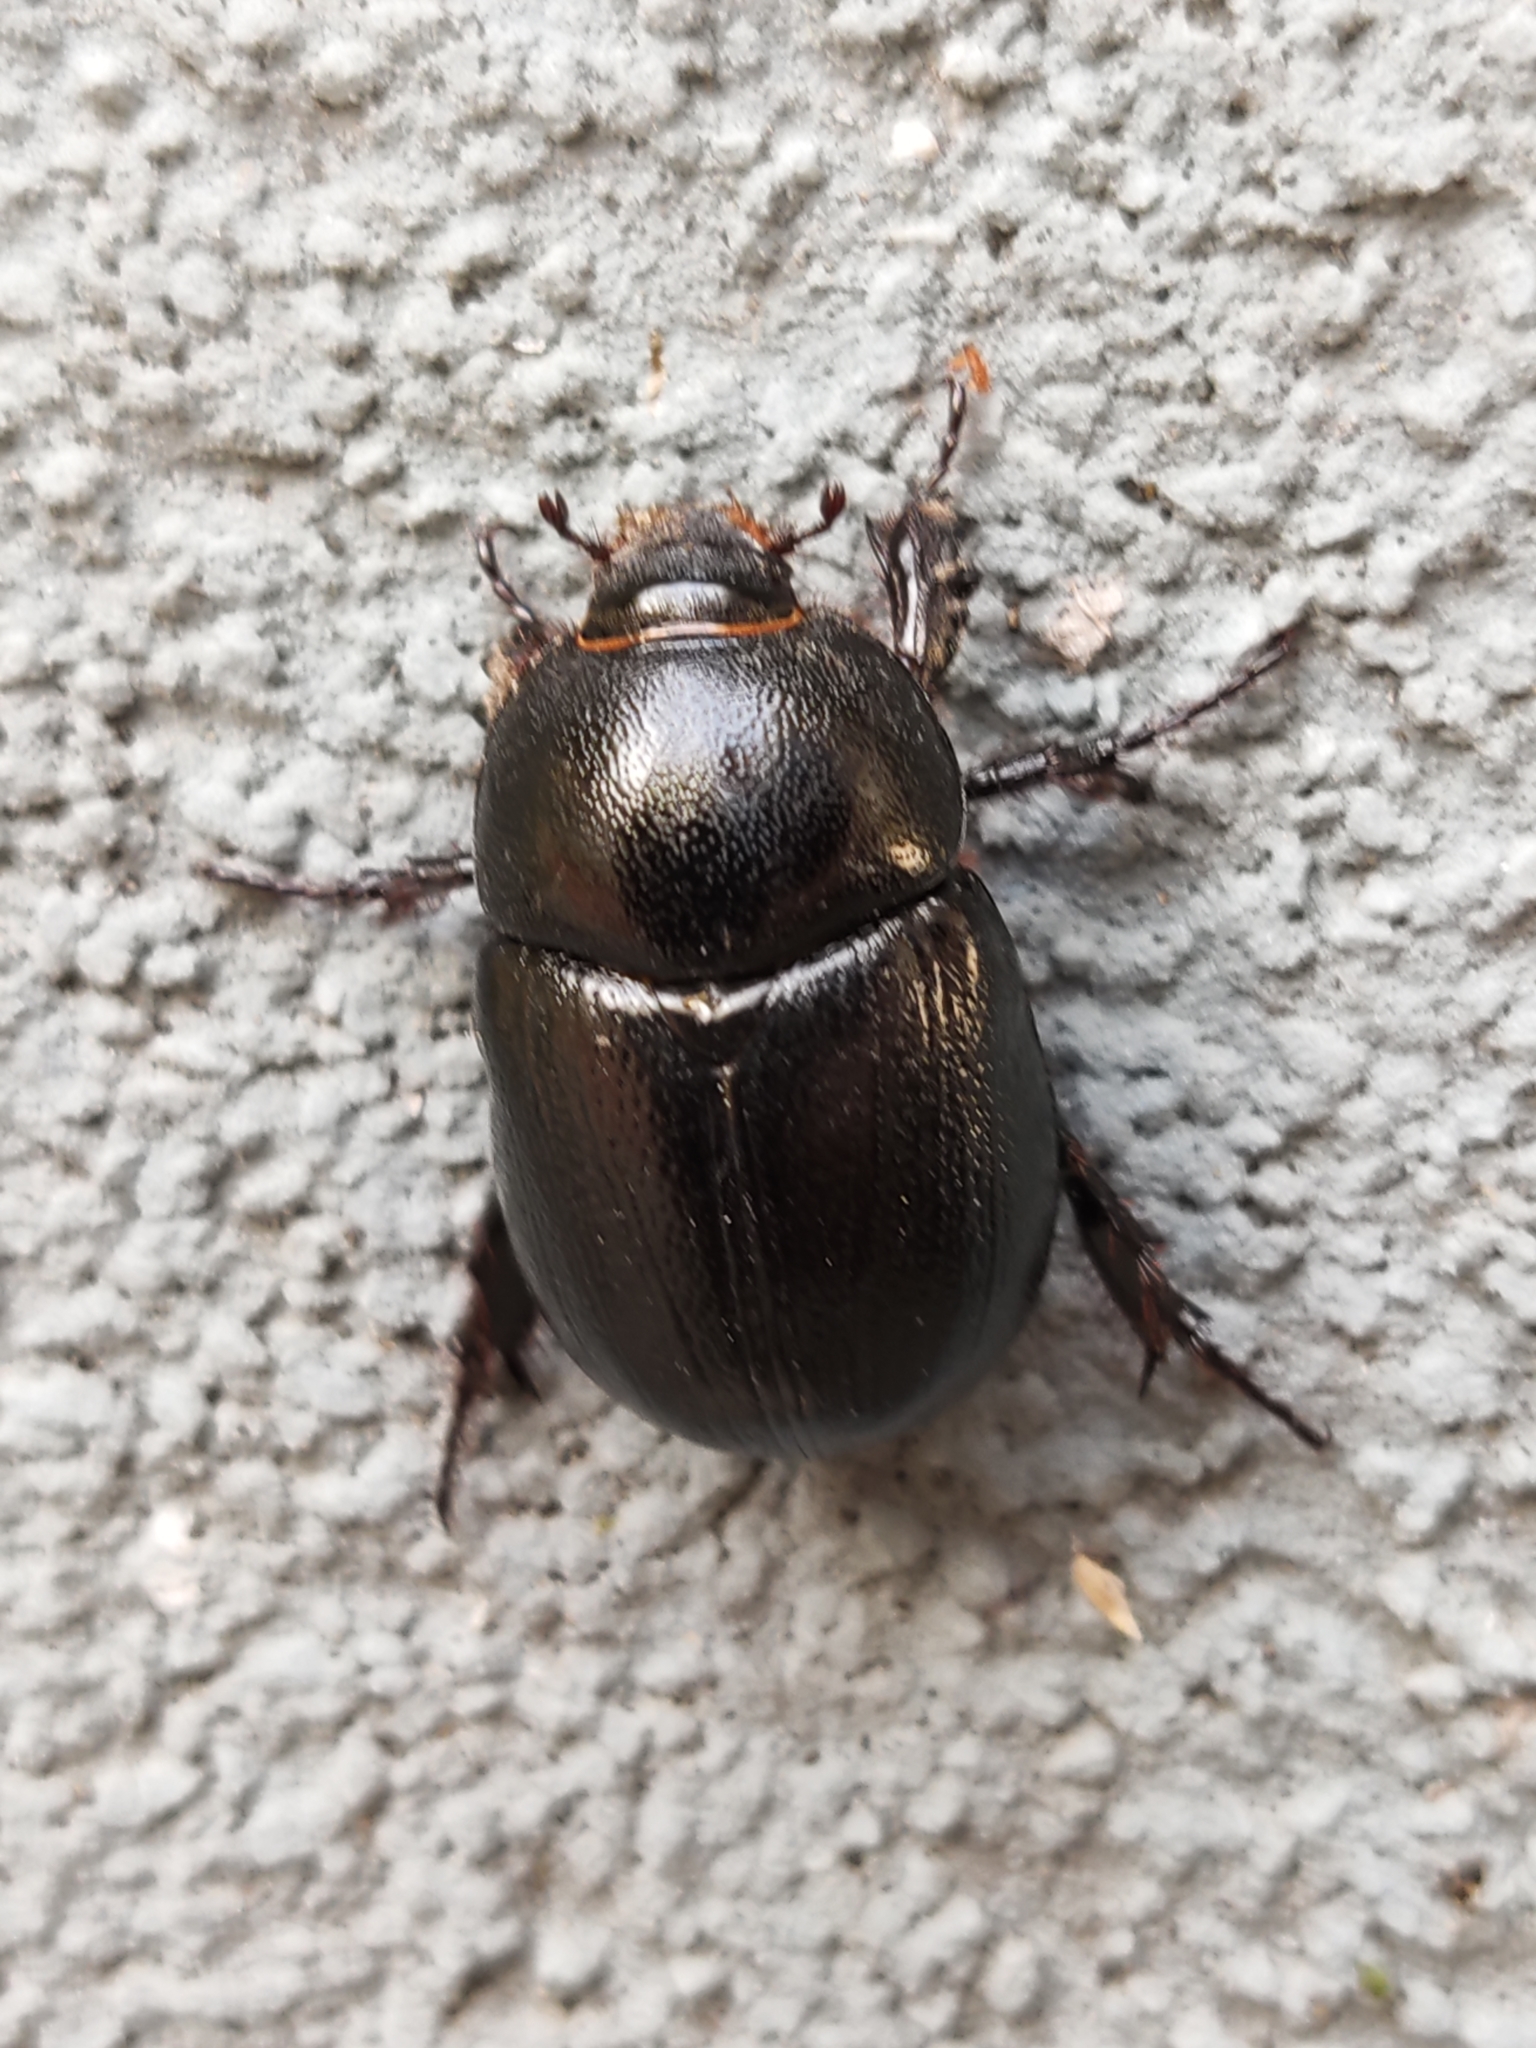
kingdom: Animalia
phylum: Arthropoda
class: Insecta
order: Coleoptera
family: Scarabaeidae
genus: Pentodon
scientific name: Pentodon bidens
